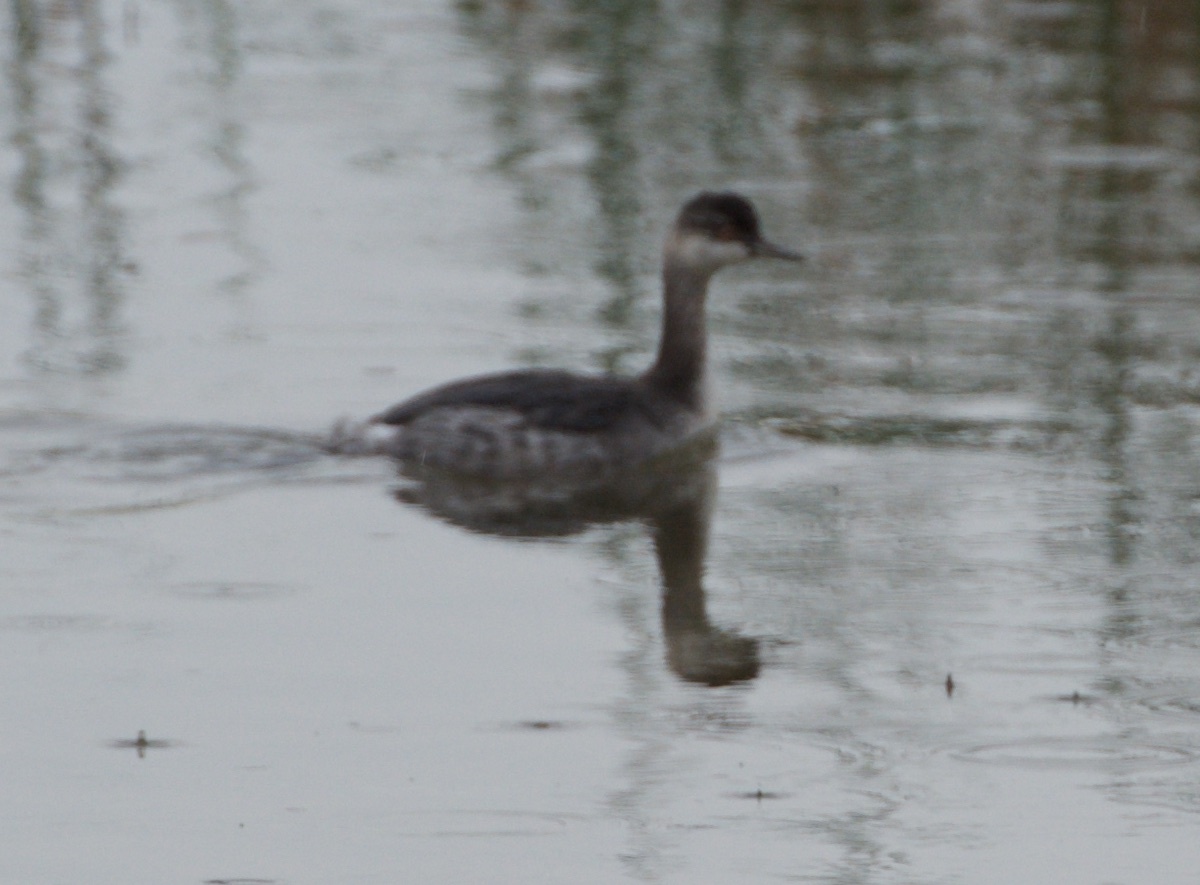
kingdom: Animalia
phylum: Chordata
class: Aves
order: Podicipediformes
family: Podicipedidae
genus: Podiceps
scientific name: Podiceps nigricollis
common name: Black-necked grebe
